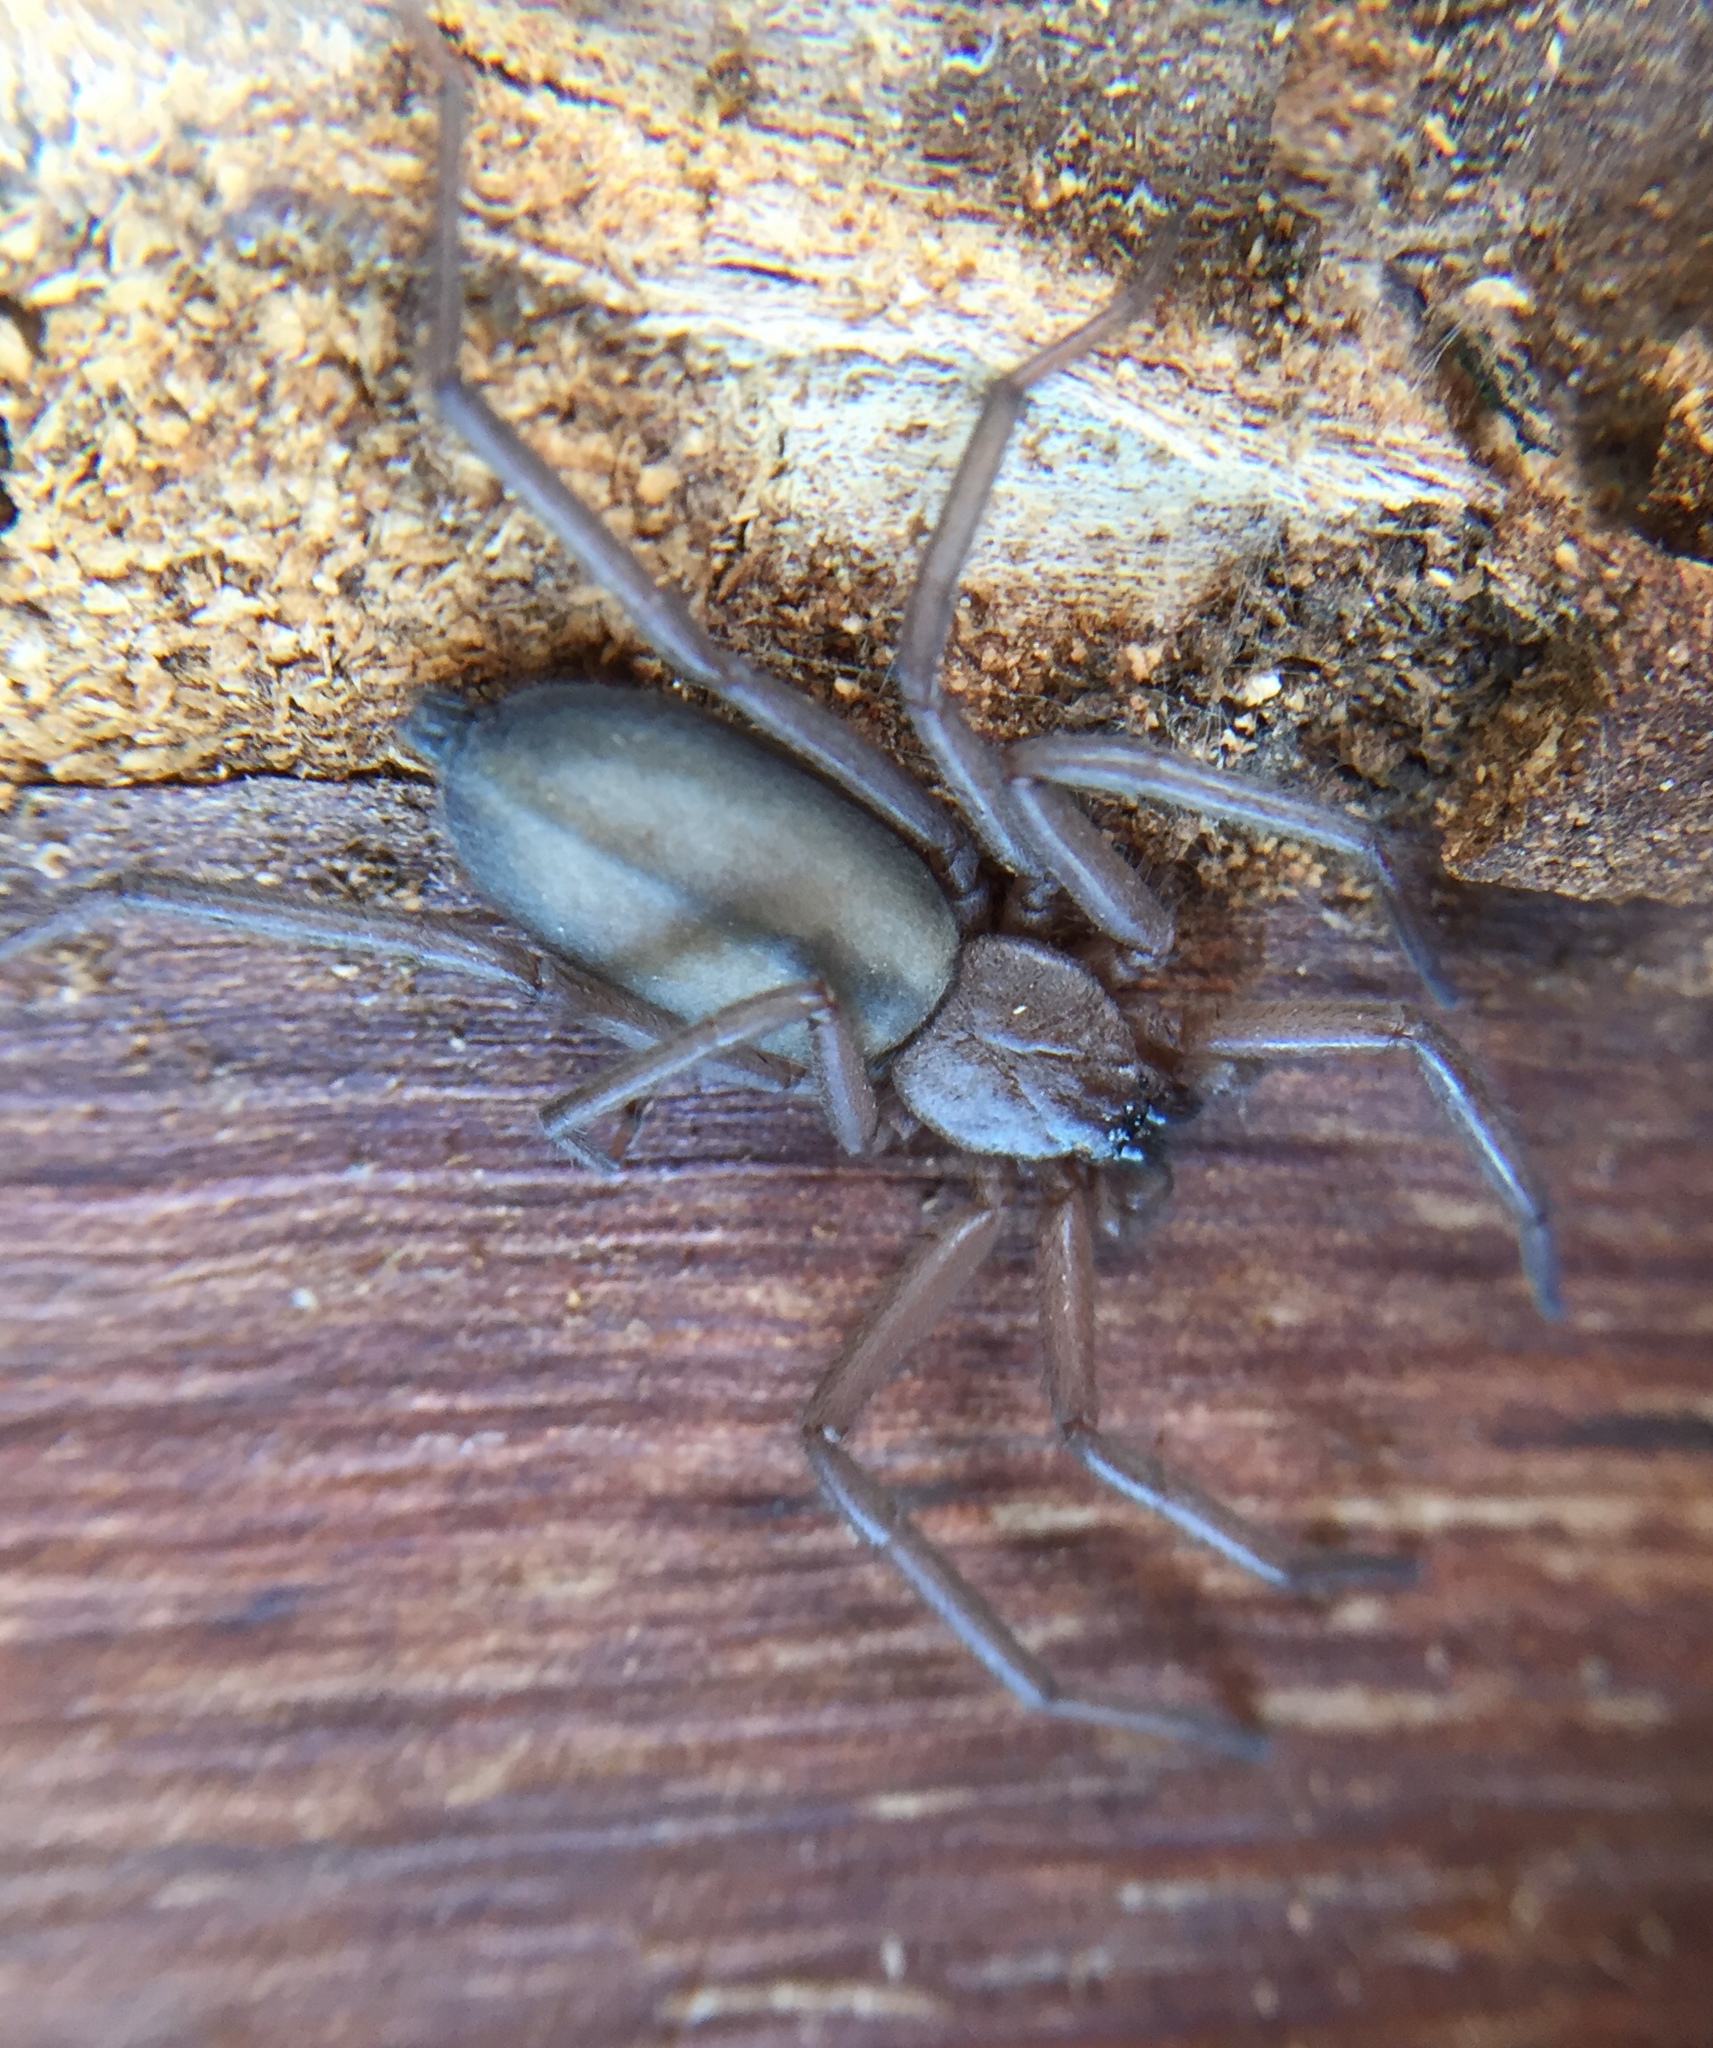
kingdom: Animalia
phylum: Arthropoda
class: Arachnida
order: Araneae
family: Trochanteriidae
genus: Hemicloea
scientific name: Hemicloea rogenhoferi
